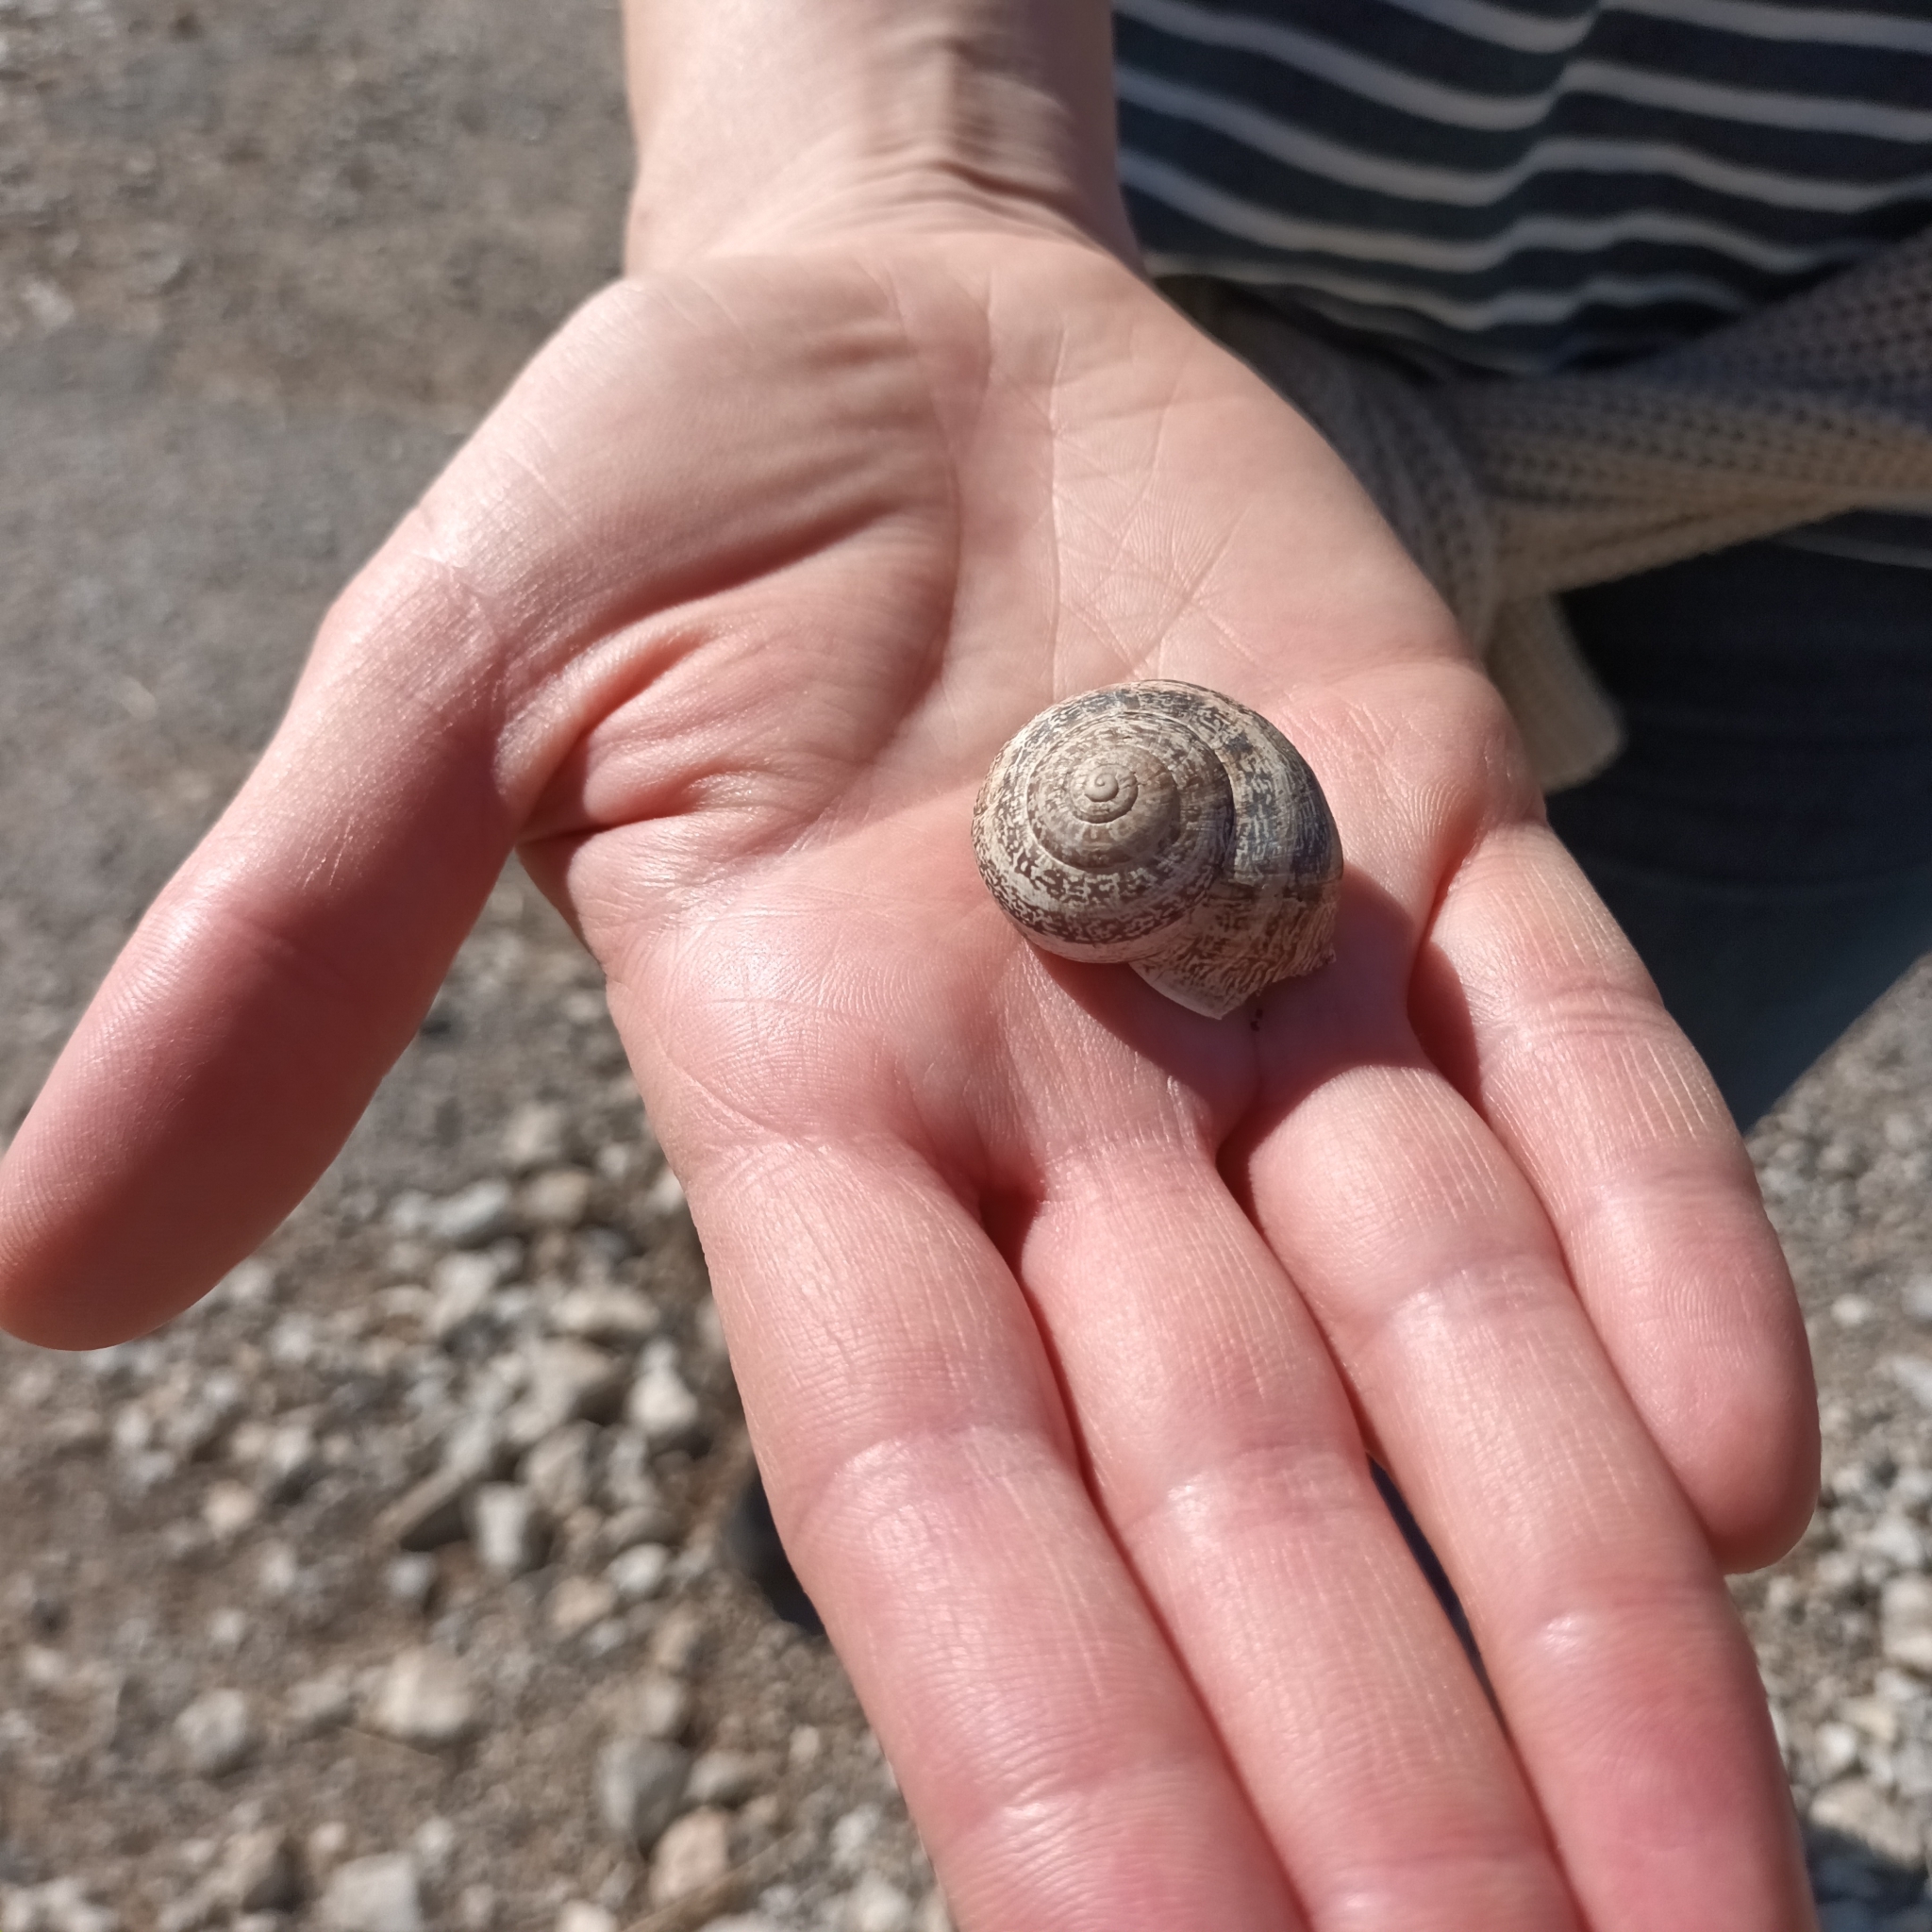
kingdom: Animalia
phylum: Mollusca
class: Gastropoda
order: Stylommatophora
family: Helicidae
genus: Otala
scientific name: Otala lactea
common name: Milk snail
